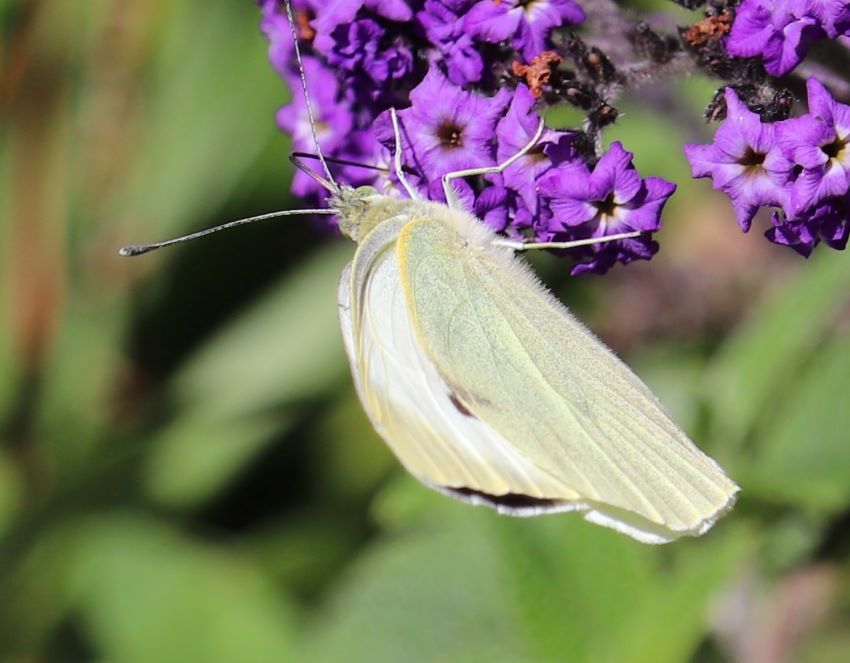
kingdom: Animalia
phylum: Arthropoda
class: Insecta
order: Lepidoptera
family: Pieridae
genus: Pieris
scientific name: Pieris brassicae
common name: Large white
